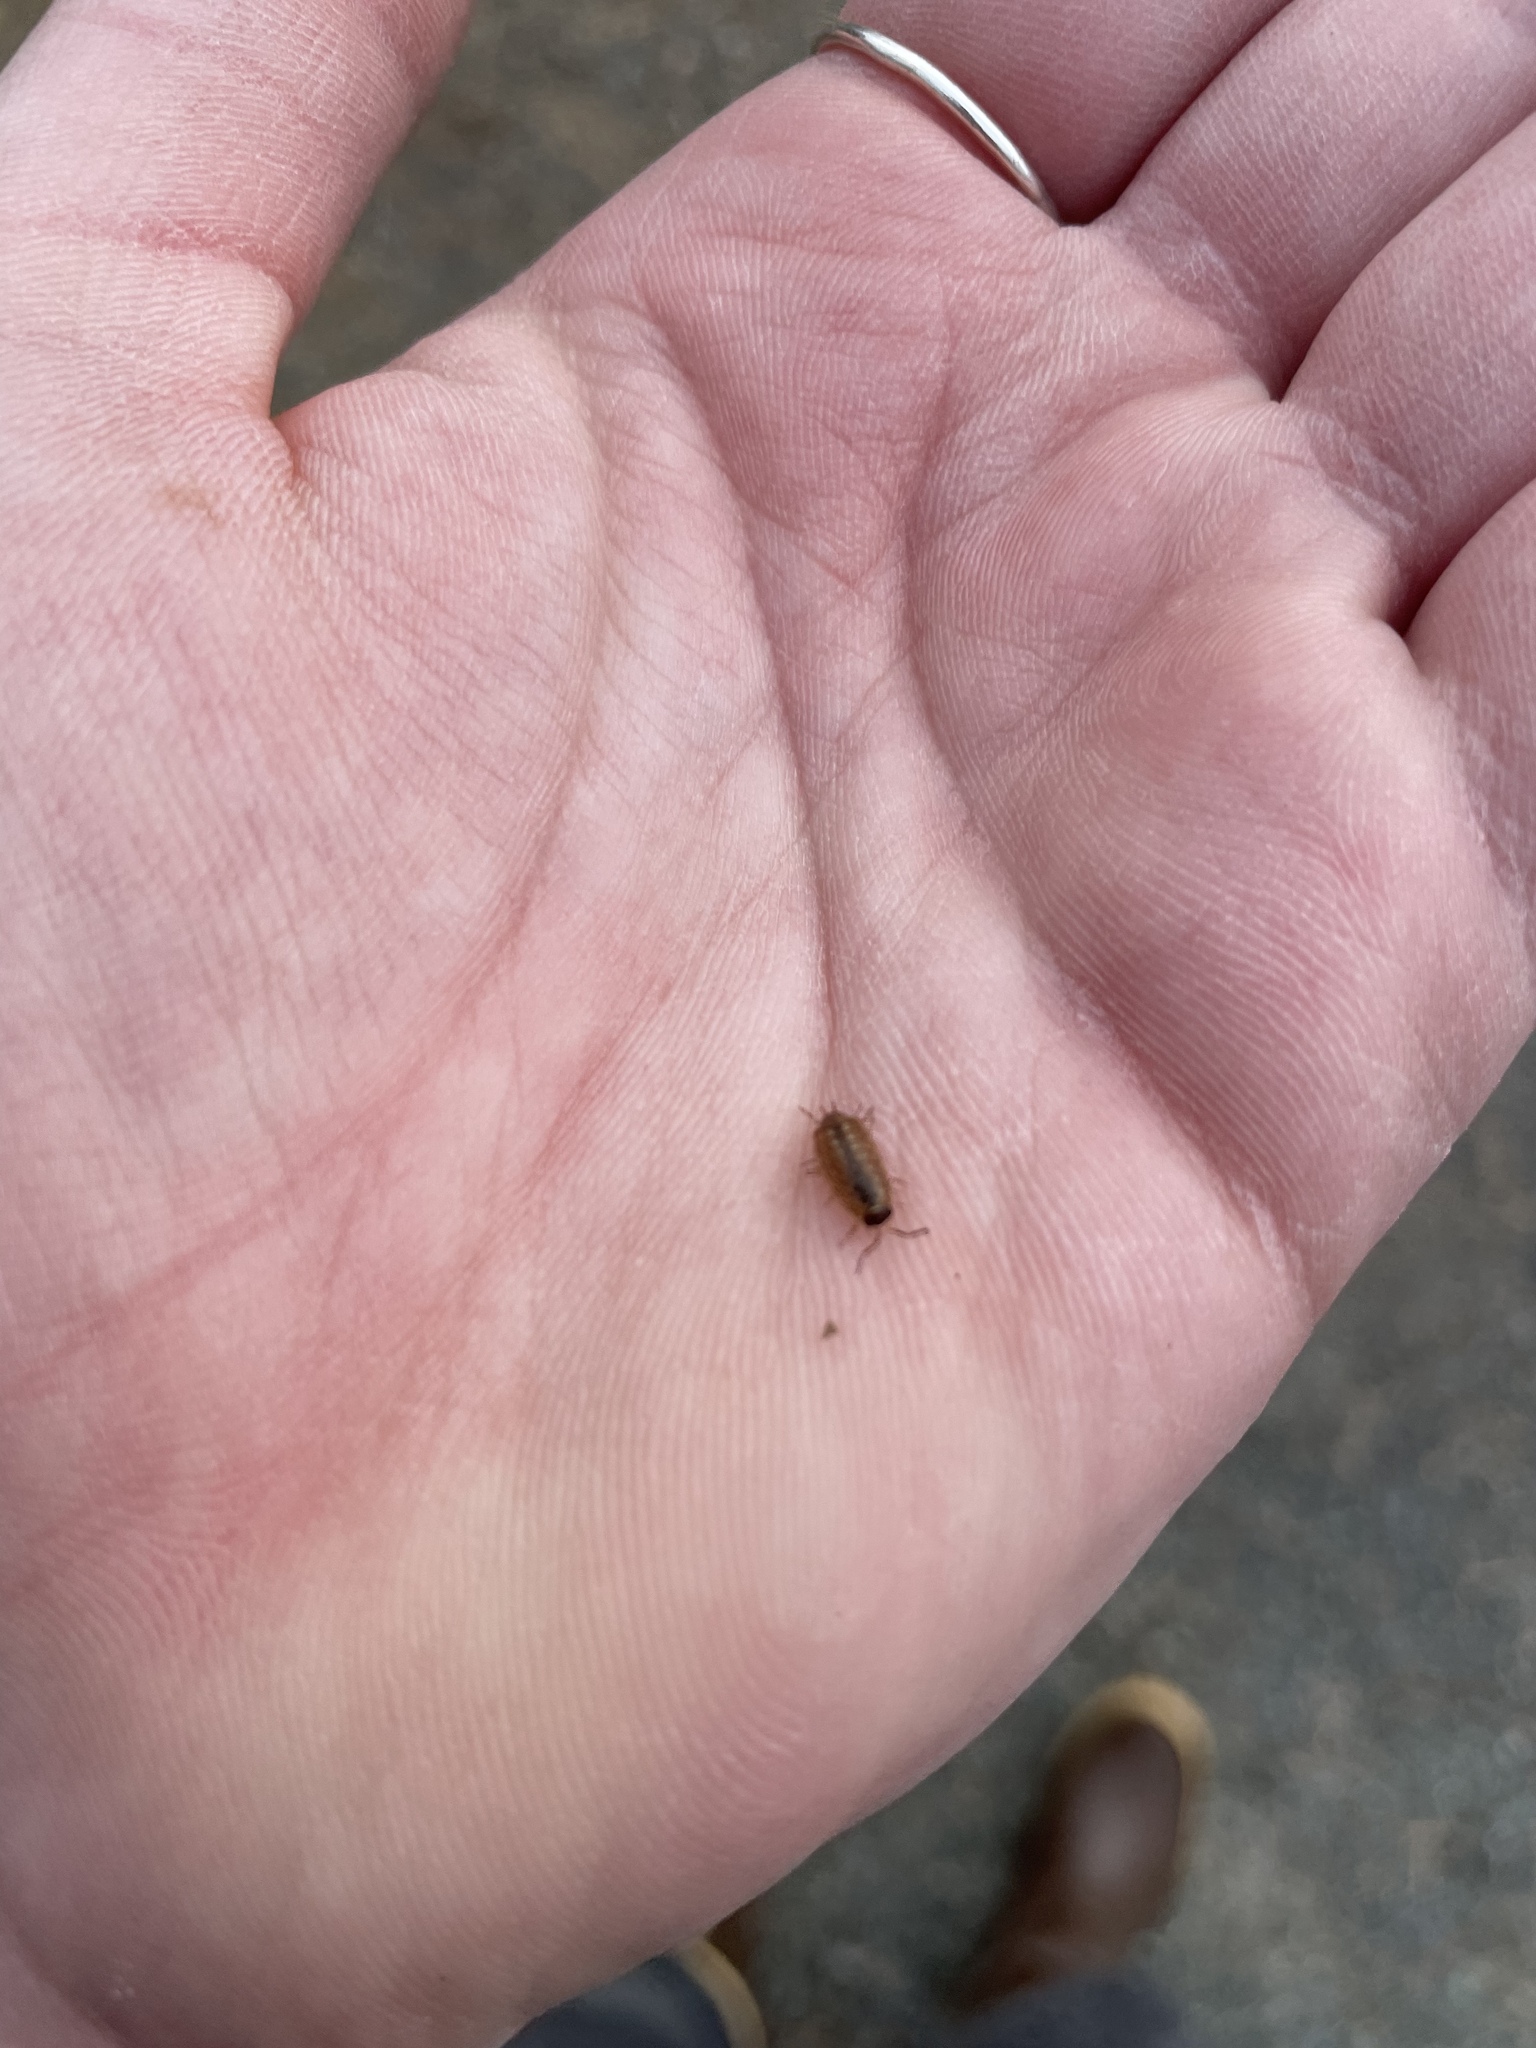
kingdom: Animalia
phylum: Arthropoda
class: Malacostraca
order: Isopoda
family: Philosciidae
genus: Philoscia
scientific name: Philoscia muscorum
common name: Common striped woodlouse
